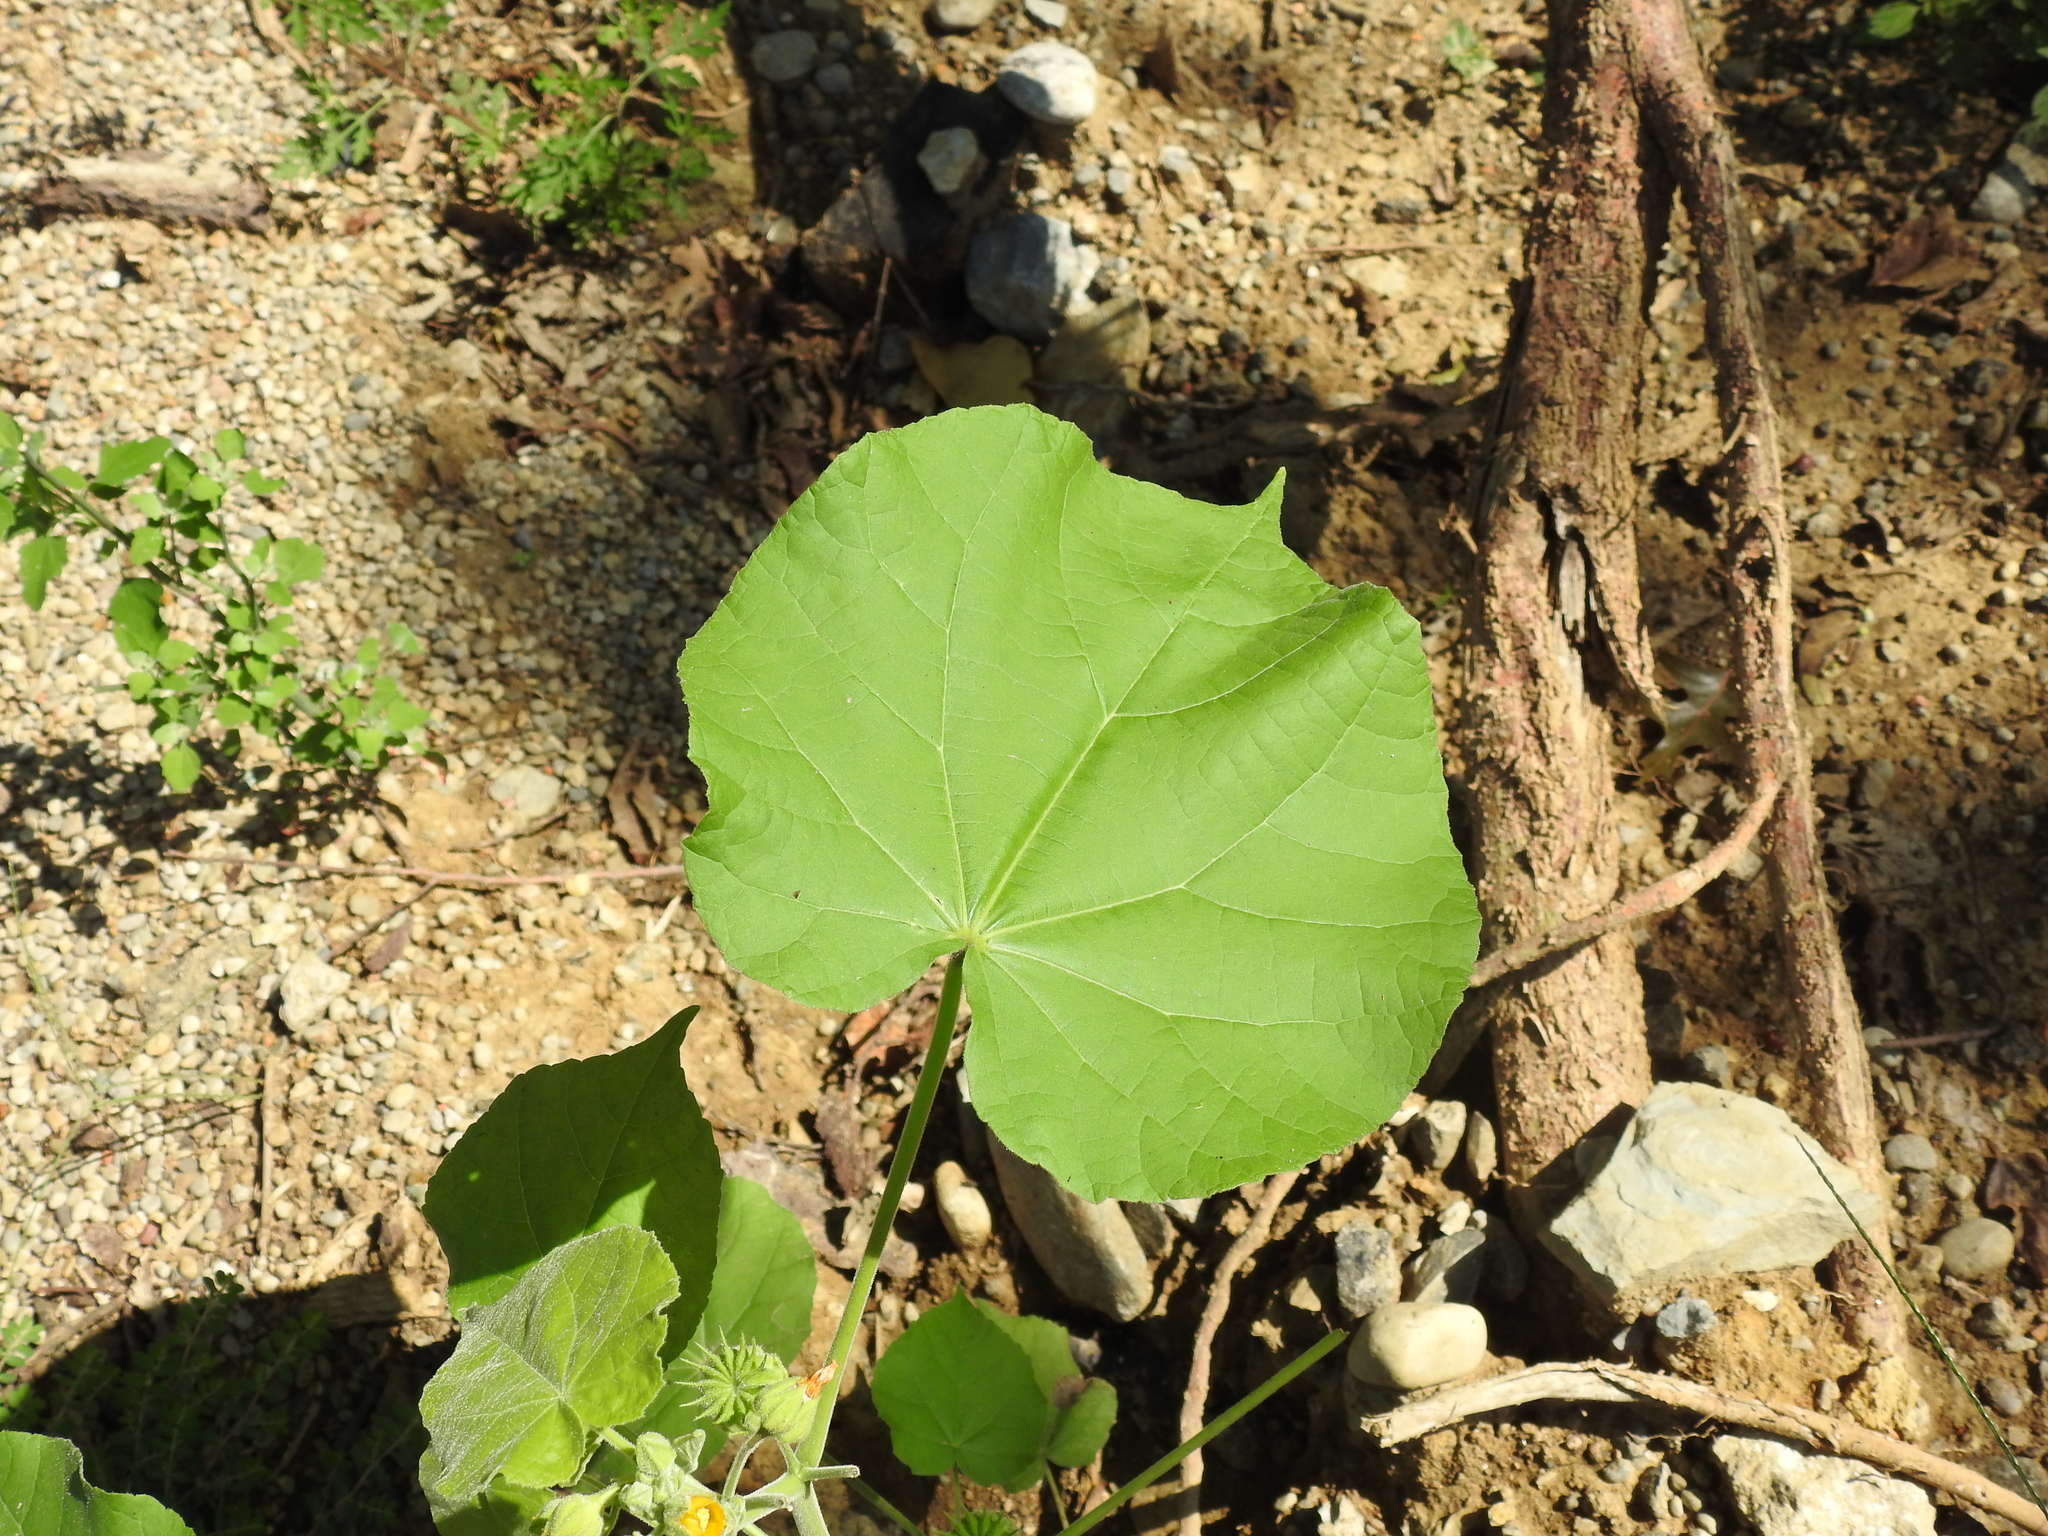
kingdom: Plantae
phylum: Tracheophyta
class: Magnoliopsida
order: Malvales
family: Malvaceae
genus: Abutilon
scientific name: Abutilon theophrasti
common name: Velvetleaf
